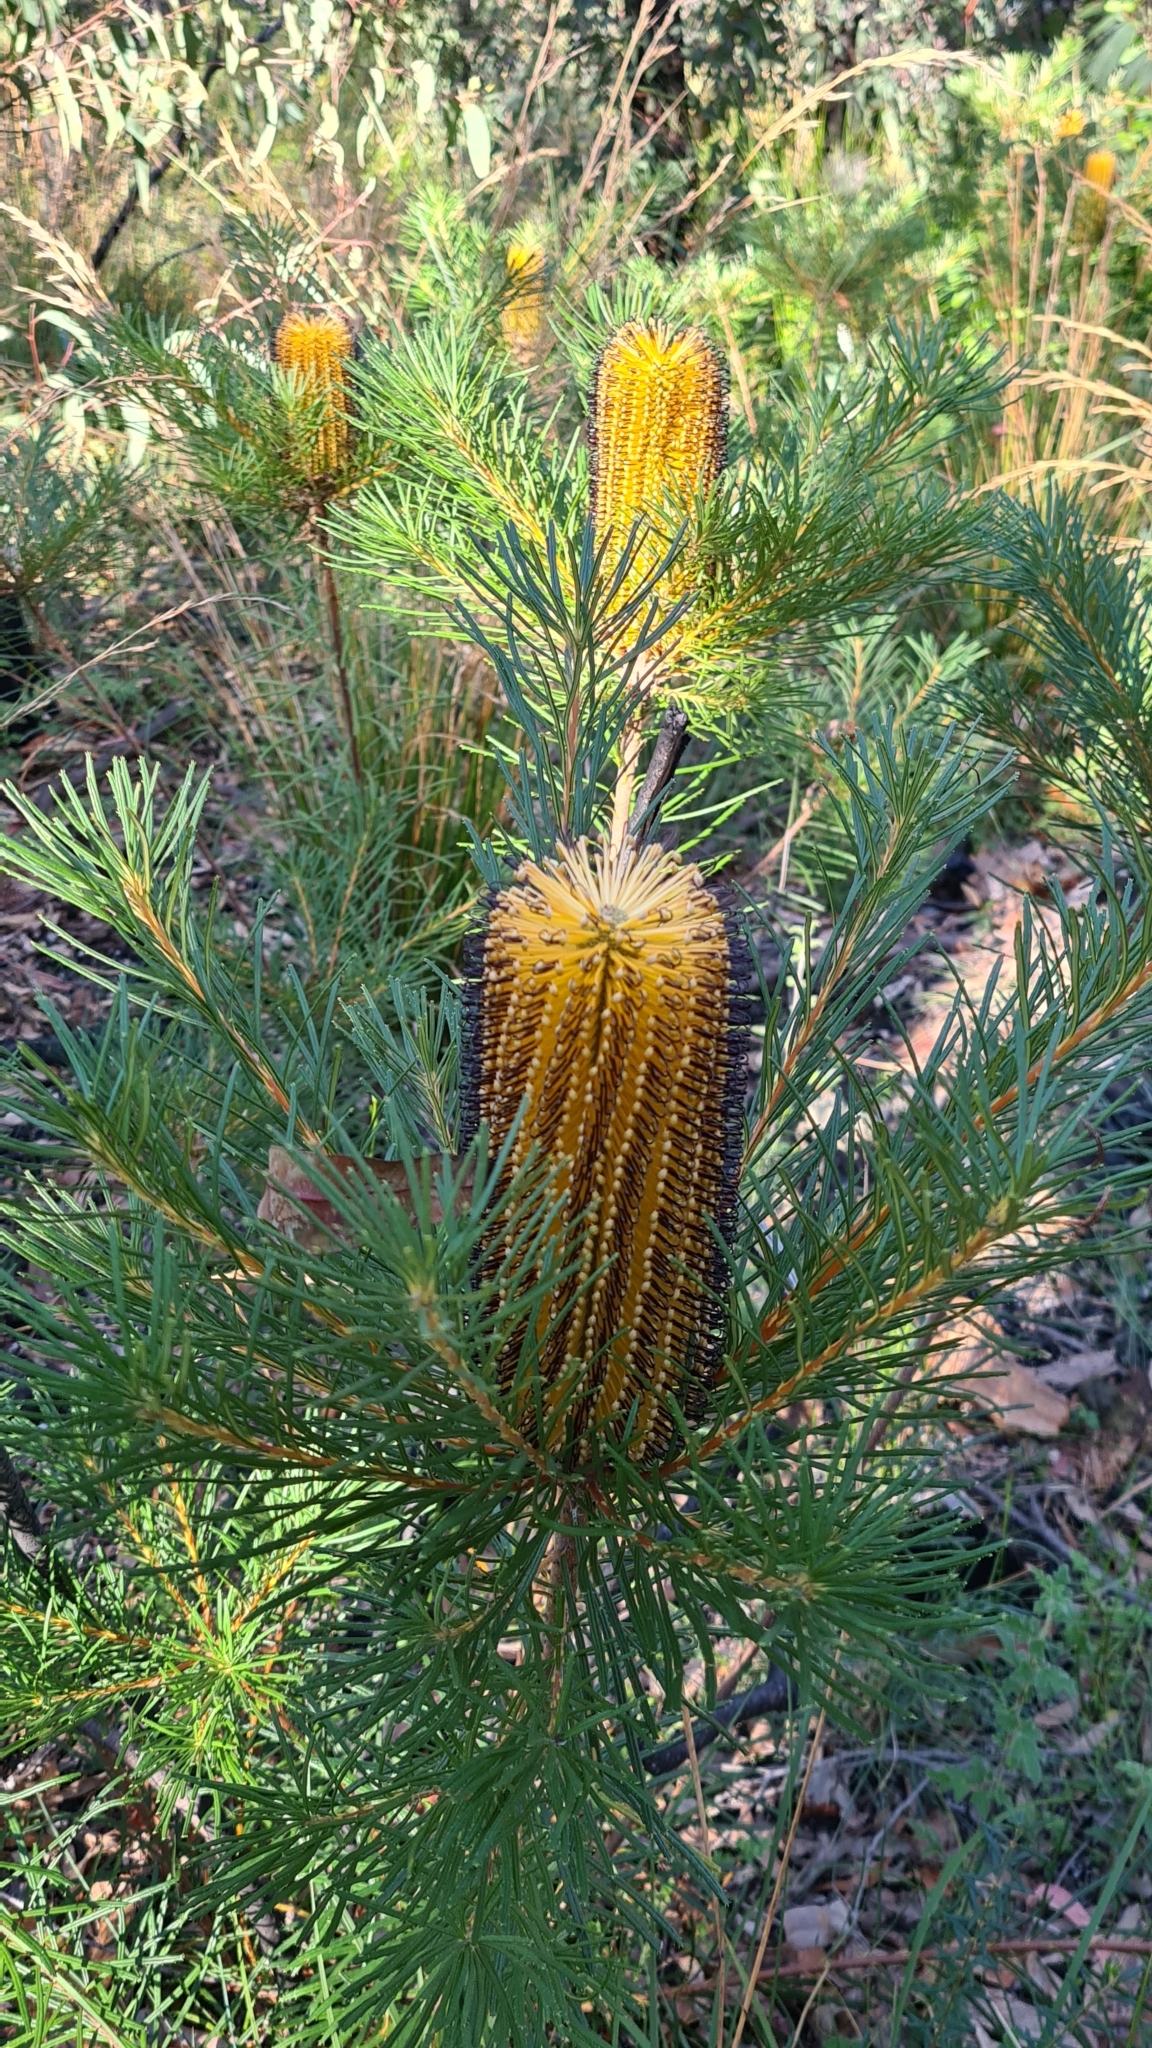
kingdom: Plantae
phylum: Tracheophyta
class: Magnoliopsida
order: Proteales
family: Proteaceae
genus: Banksia
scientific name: Banksia spinulosa
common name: Hairpin banksia
